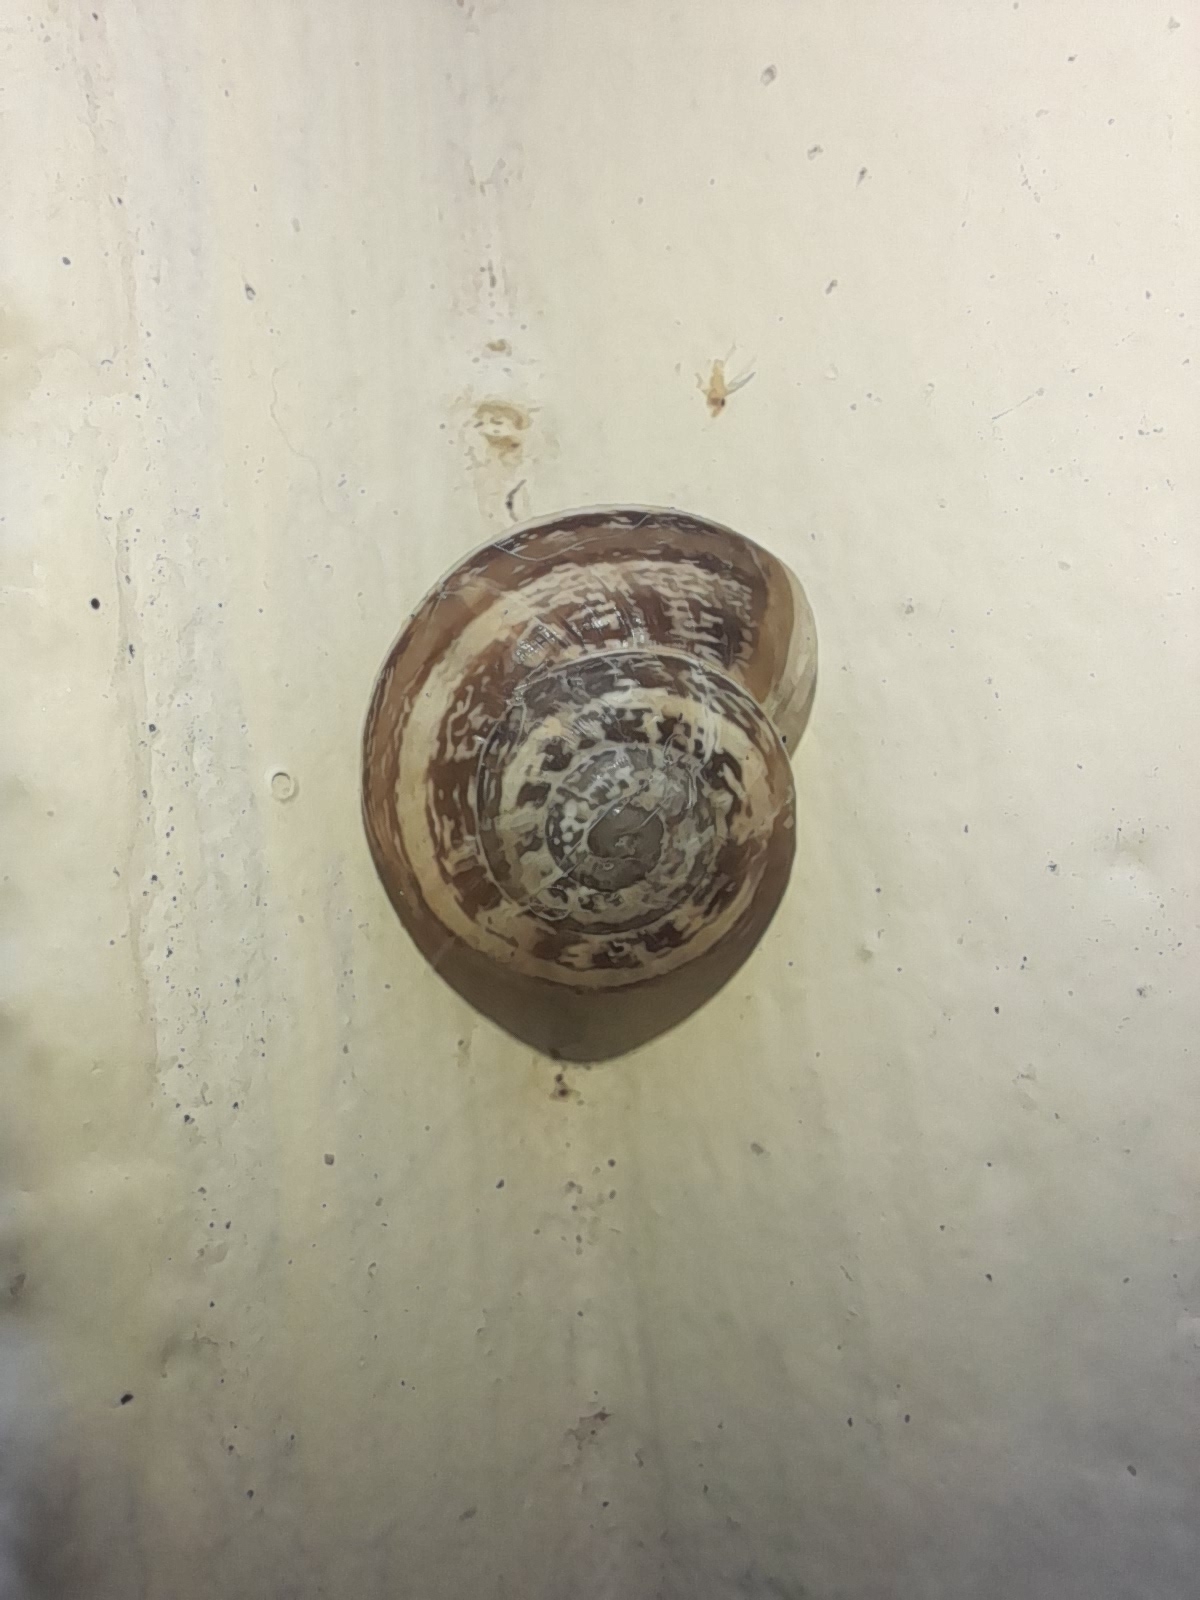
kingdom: Animalia
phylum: Mollusca
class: Gastropoda
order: Stylommatophora
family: Helicidae
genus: Eobania
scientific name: Eobania vermiculata
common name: Chocolateband snail
